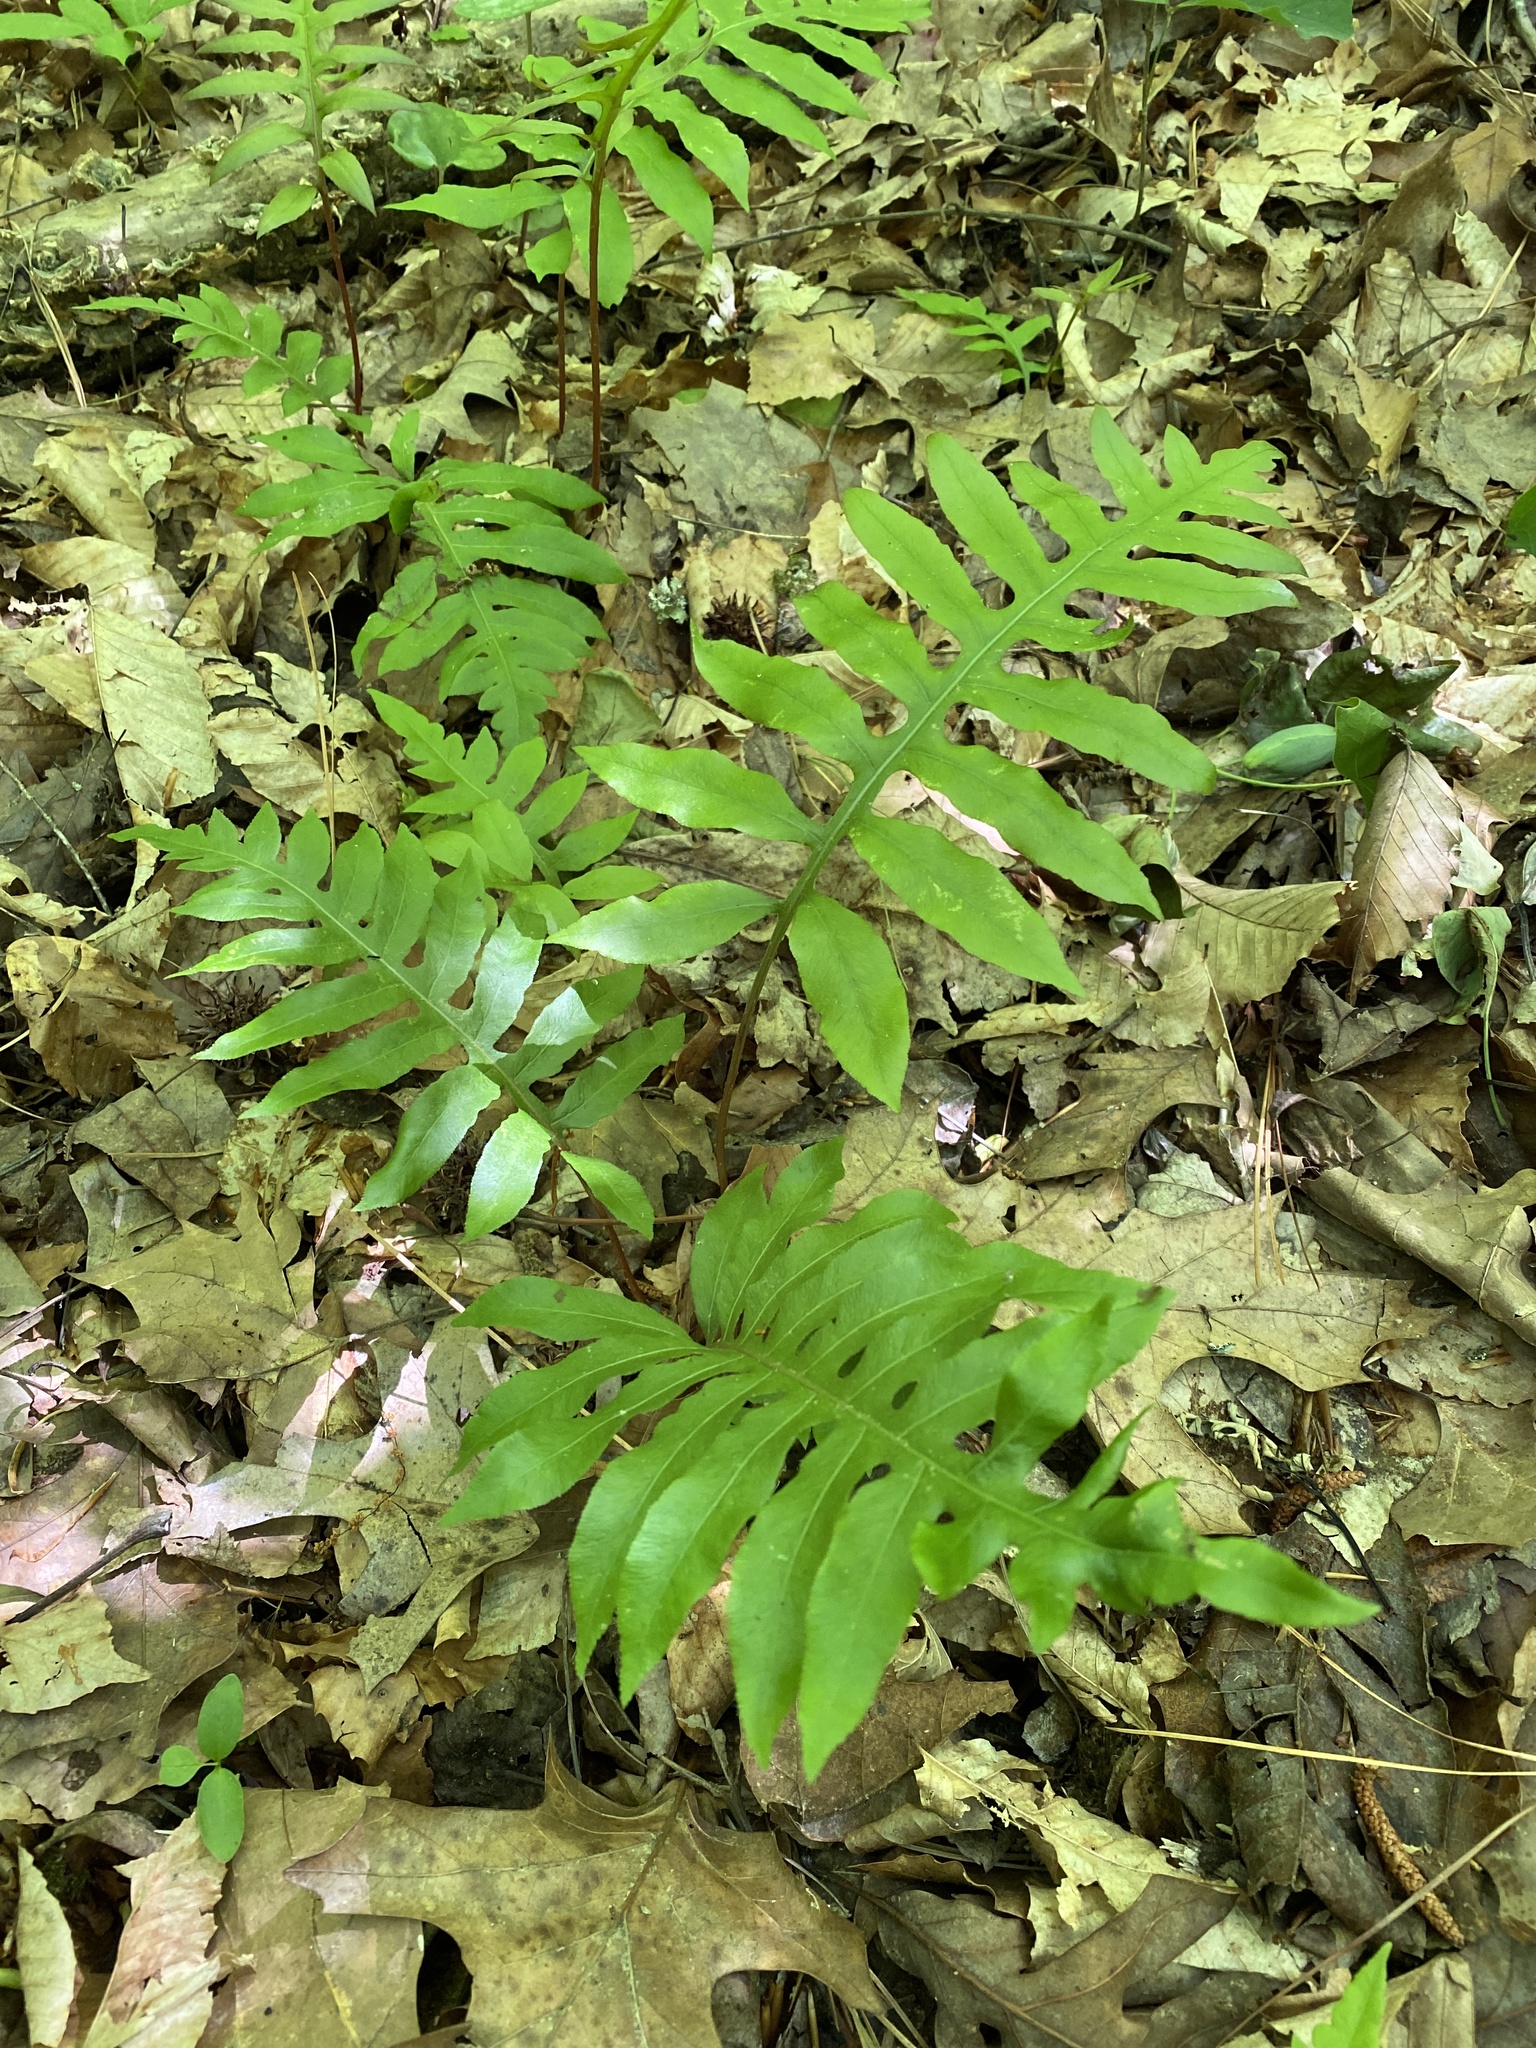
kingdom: Plantae
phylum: Tracheophyta
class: Polypodiopsida
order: Polypodiales
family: Blechnaceae
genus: Lorinseria
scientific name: Lorinseria areolata
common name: Dwarf chain fern
